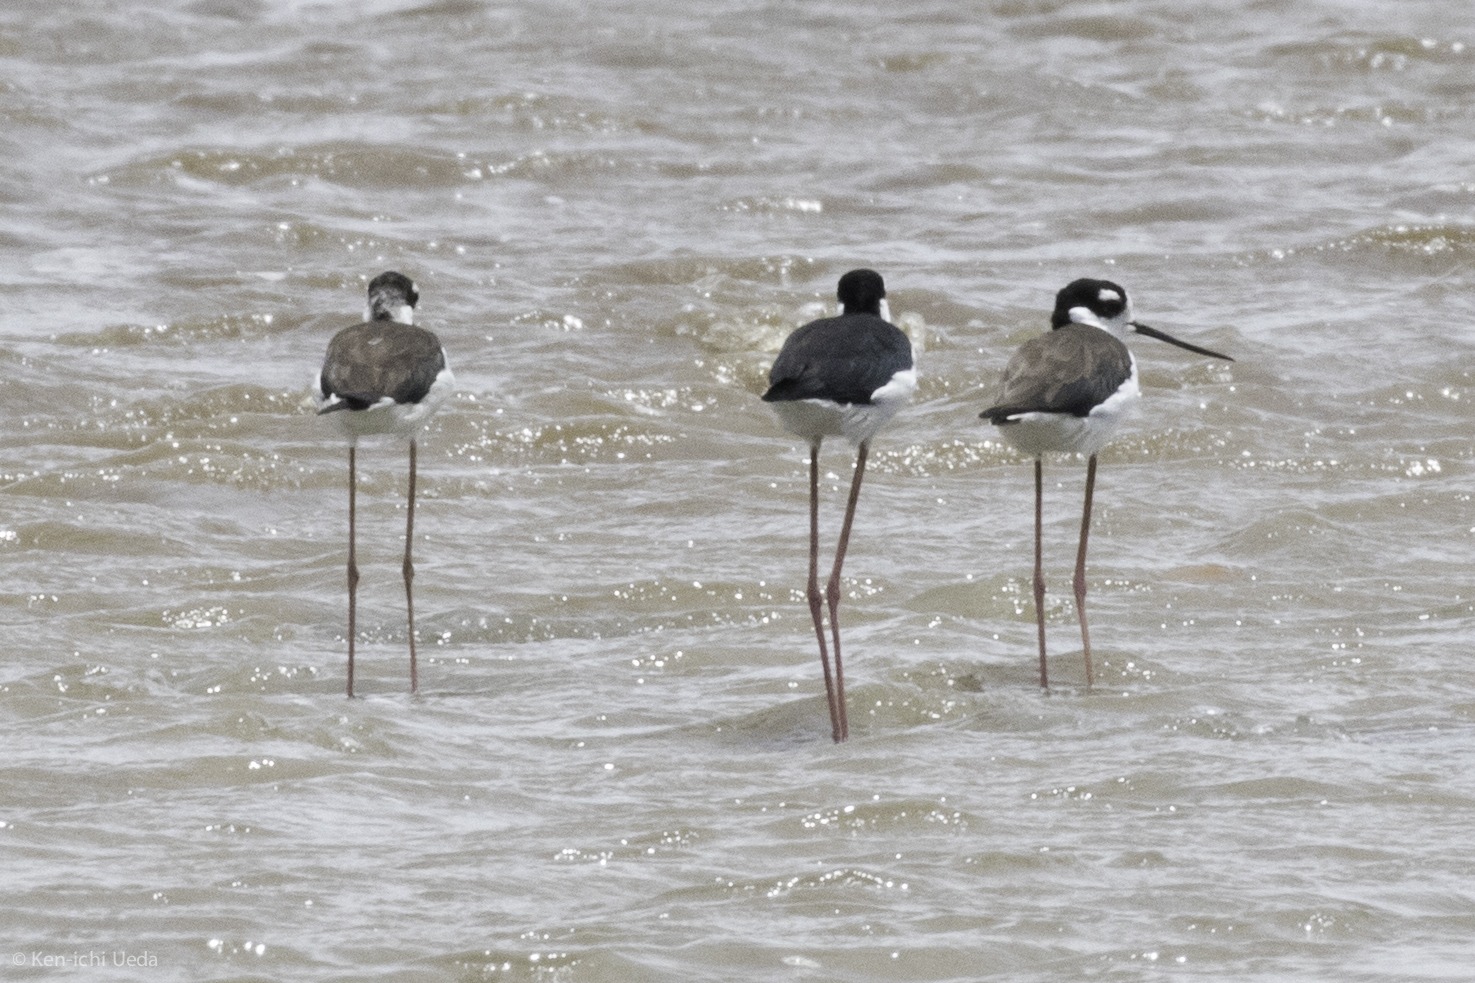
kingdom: Animalia
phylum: Chordata
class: Aves
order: Charadriiformes
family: Recurvirostridae
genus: Himantopus
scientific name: Himantopus mexicanus
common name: Black-necked stilt
